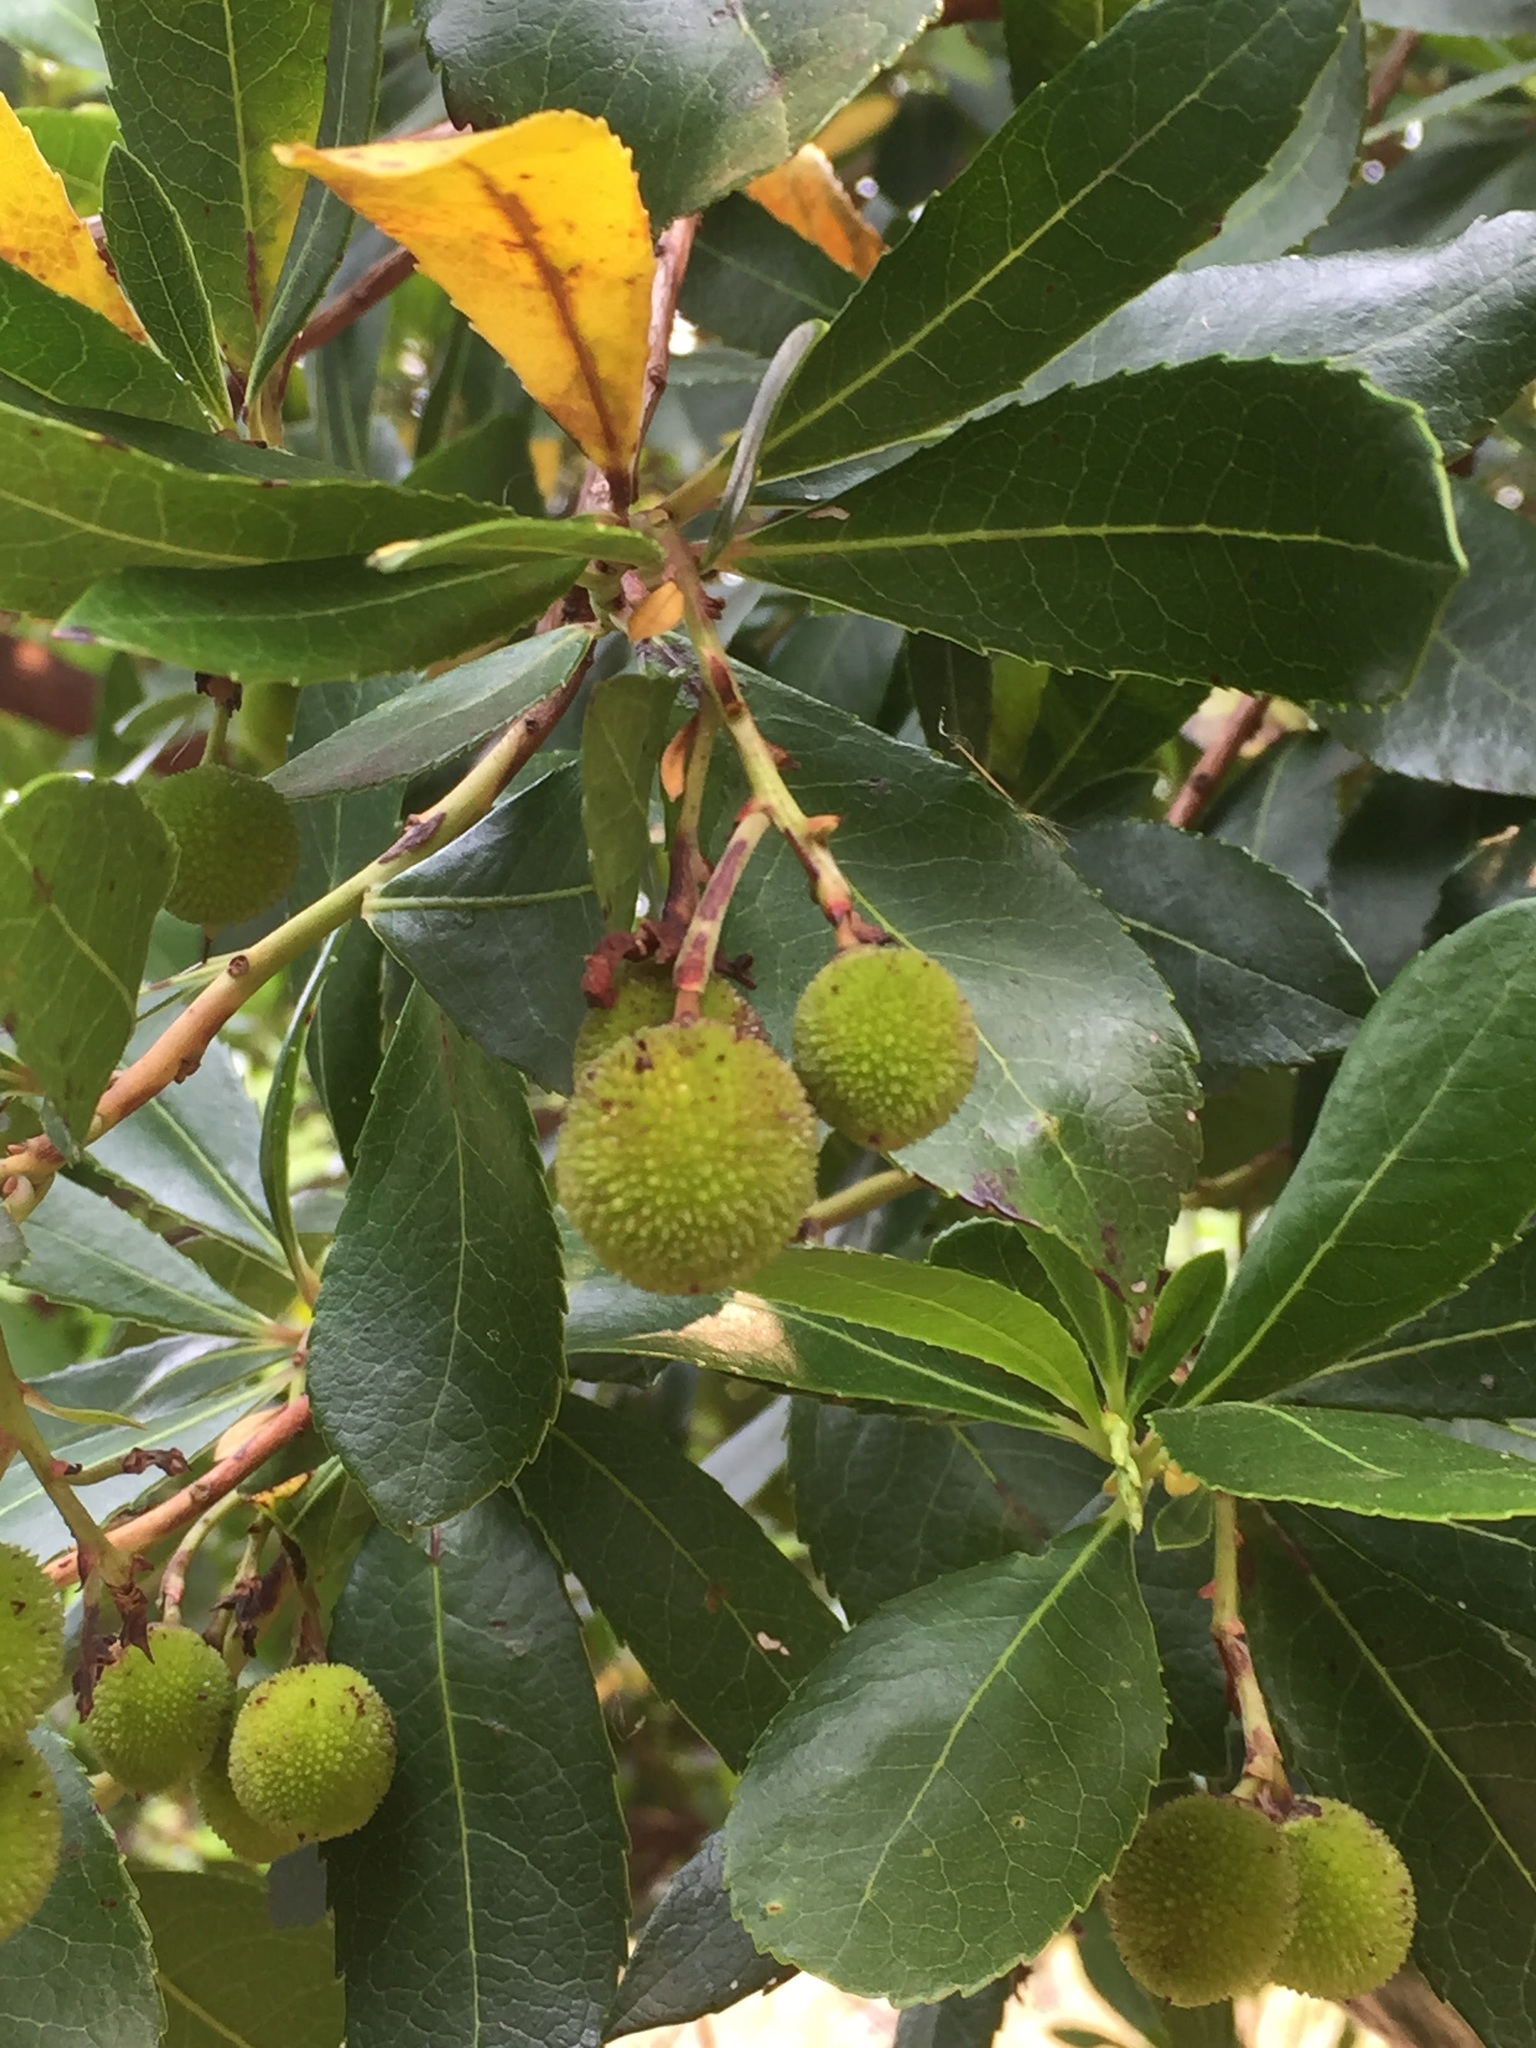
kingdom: Plantae
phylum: Tracheophyta
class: Magnoliopsida
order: Ericales
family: Ericaceae
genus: Arbutus
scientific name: Arbutus unedo
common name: Strawberry-tree
